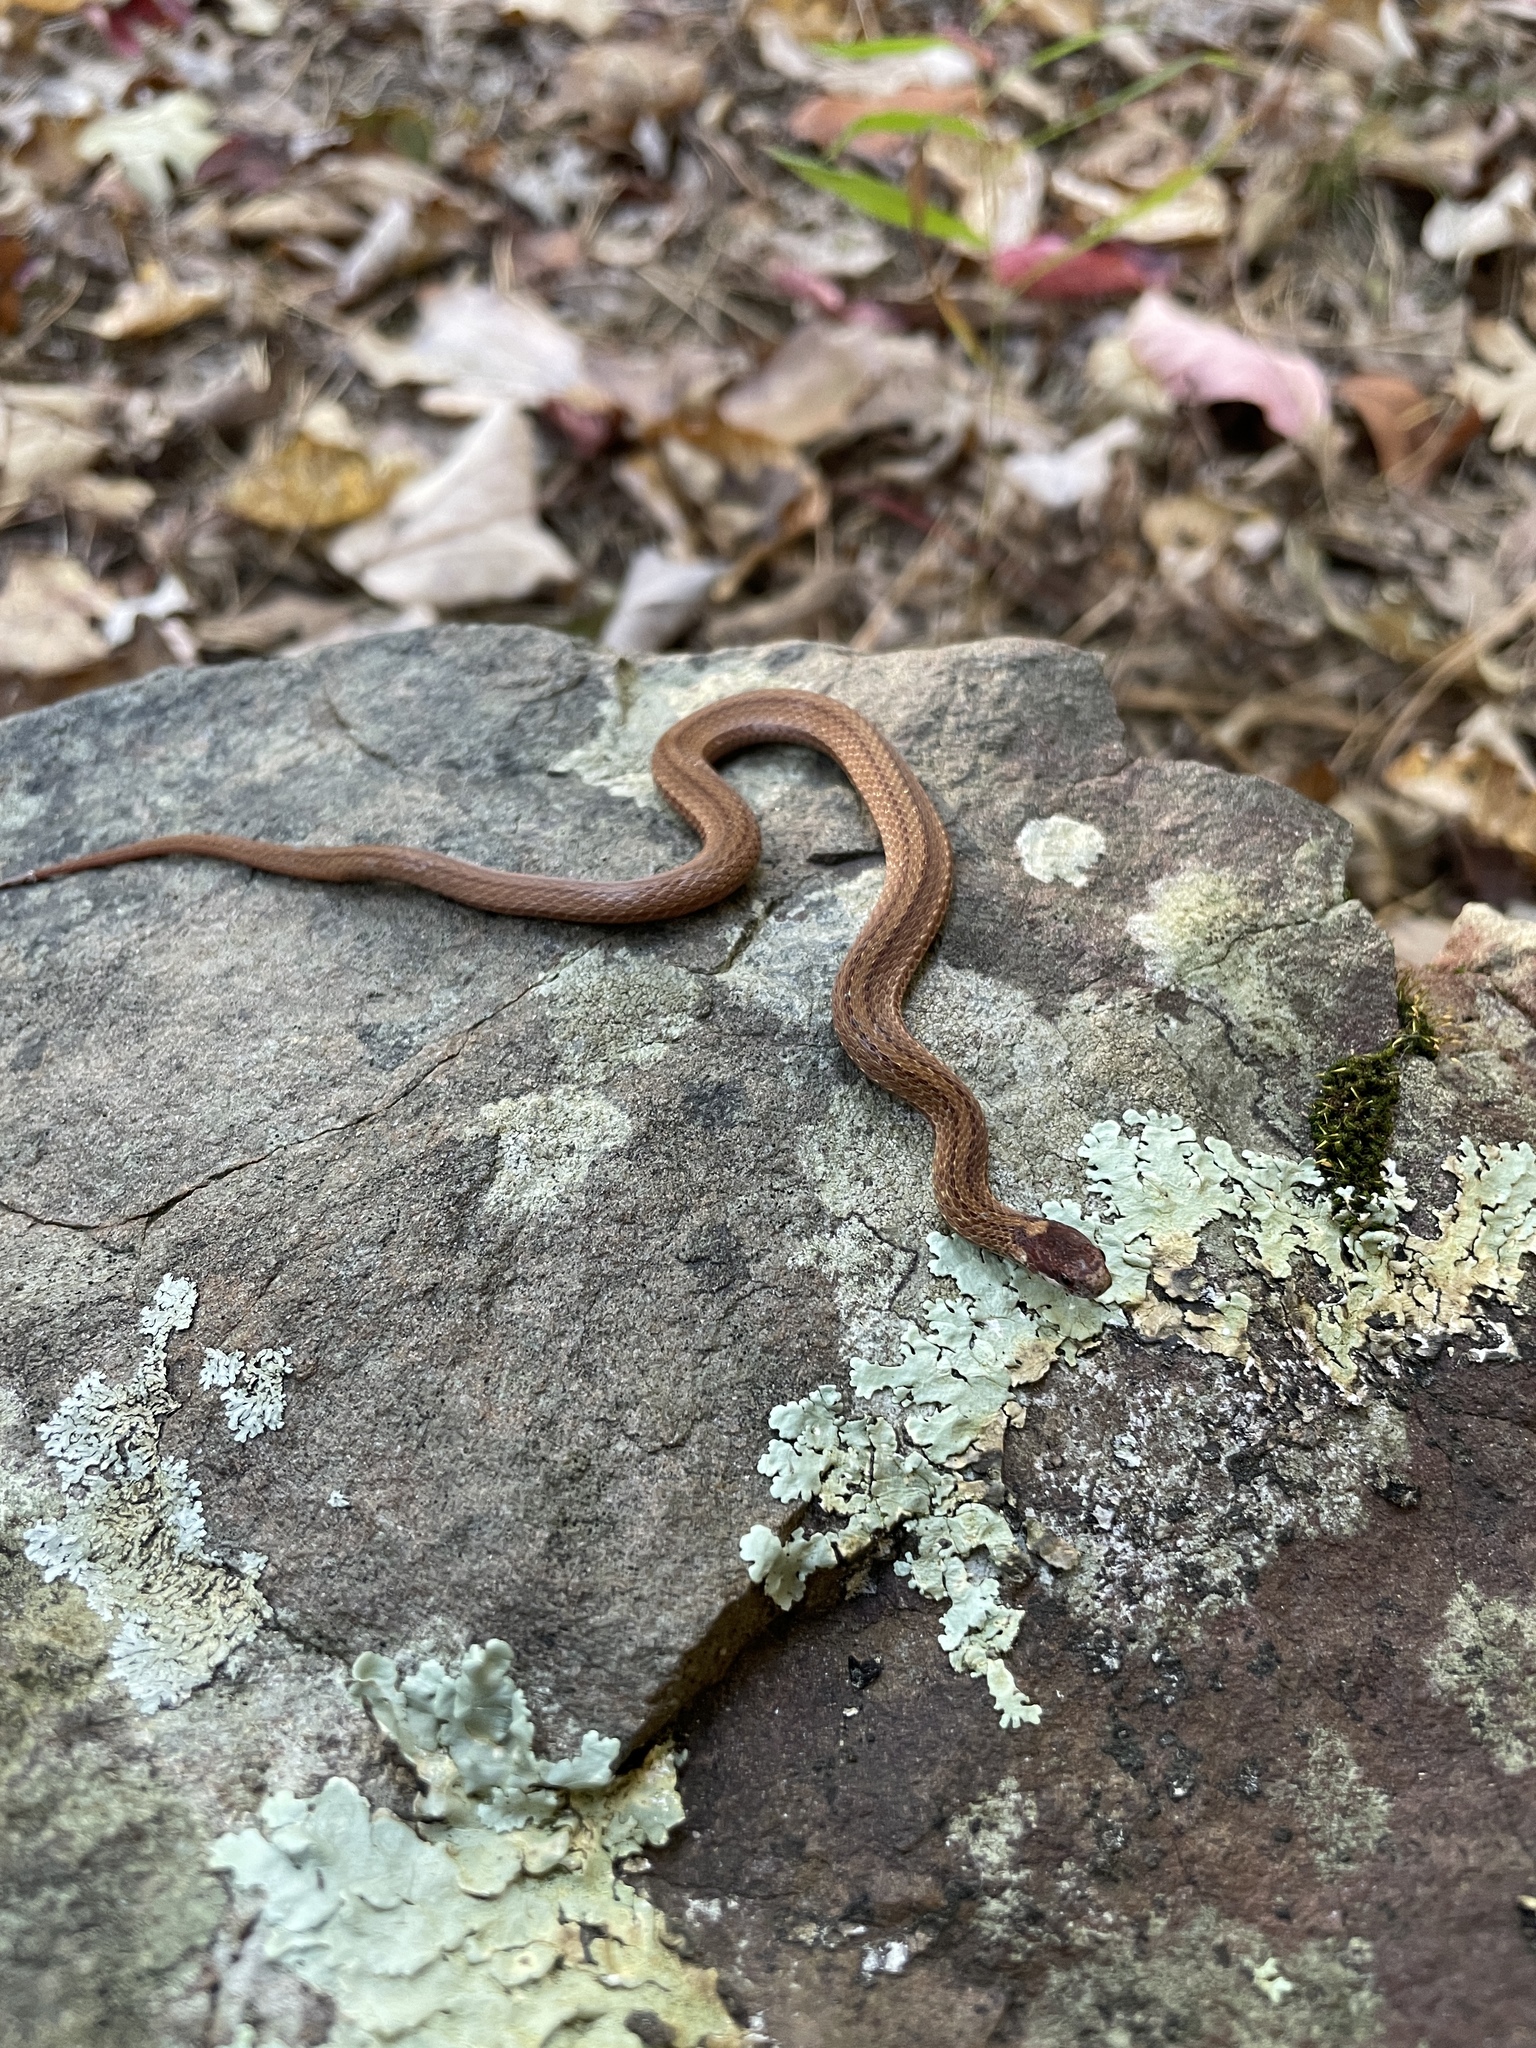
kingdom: Animalia
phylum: Chordata
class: Squamata
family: Colubridae
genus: Storeria
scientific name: Storeria occipitomaculata
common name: Redbelly snake
